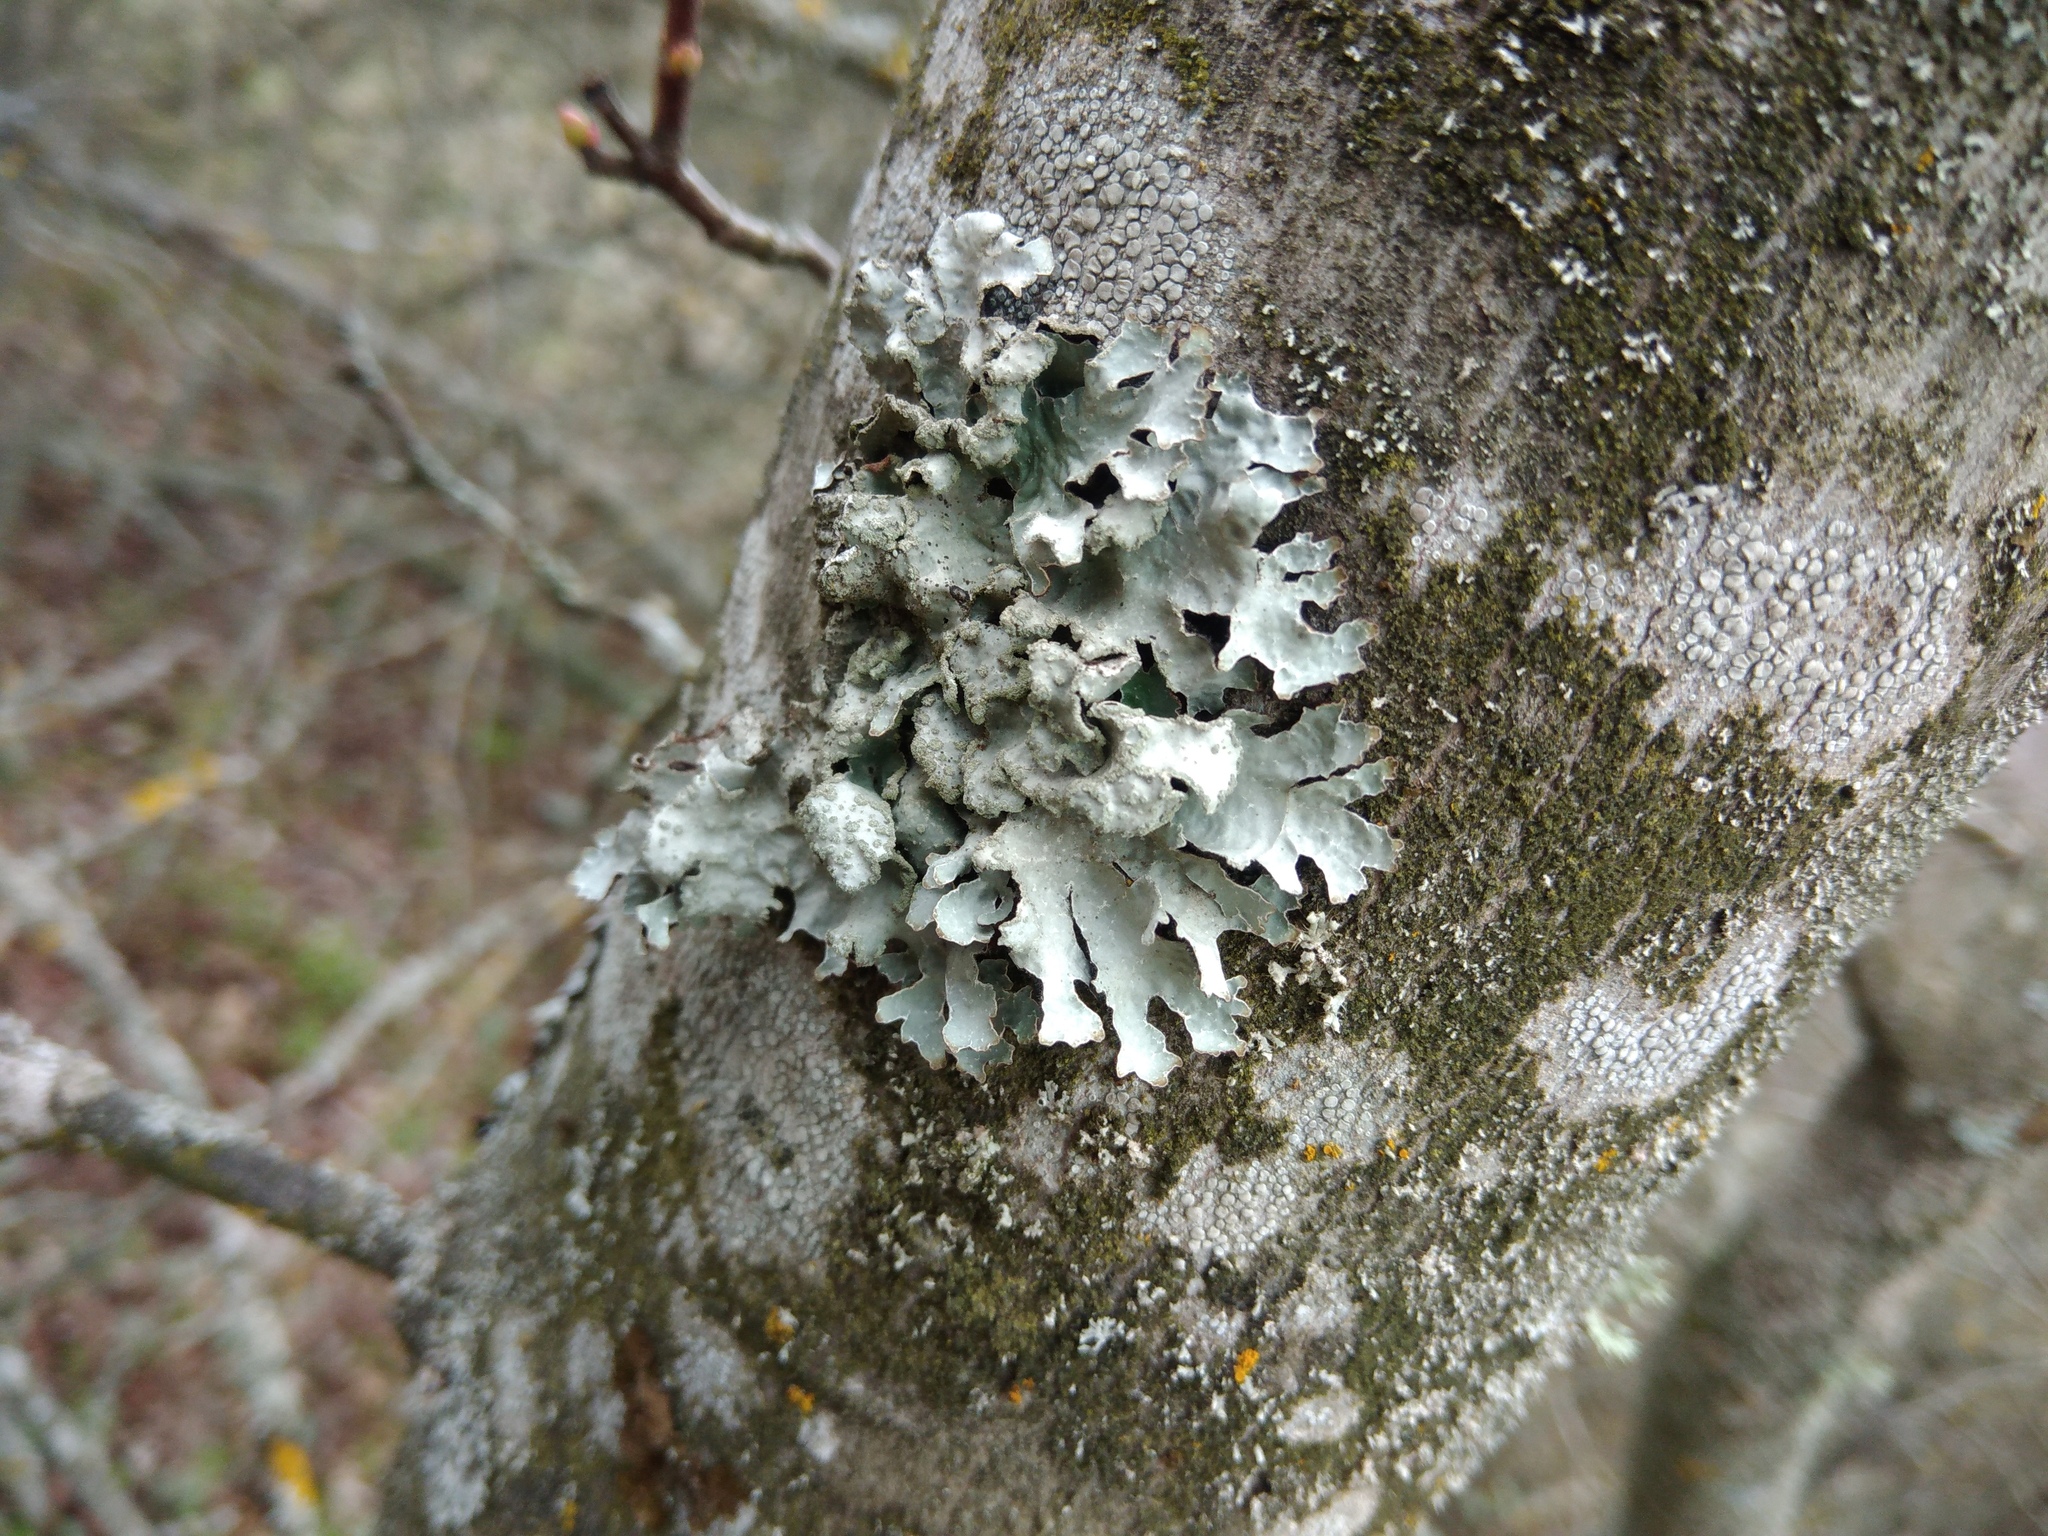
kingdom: Fungi
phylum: Ascomycota
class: Lecanoromycetes
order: Lecanorales
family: Parmeliaceae
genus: Parmelia
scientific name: Parmelia sulcata
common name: Netted shield lichen
